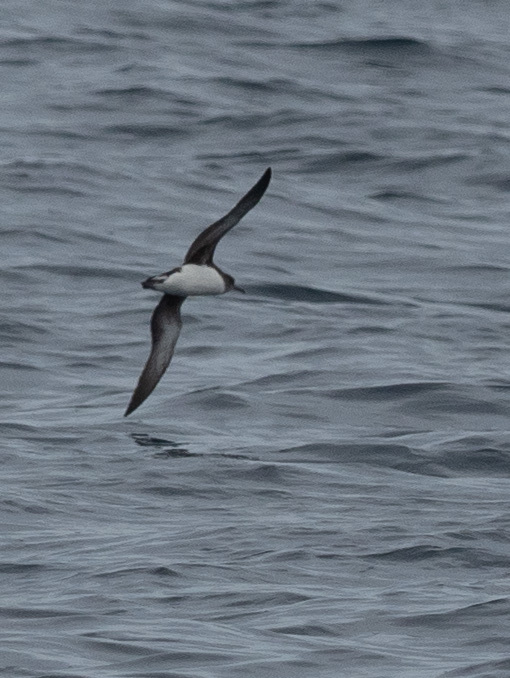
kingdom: Animalia
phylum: Chordata
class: Aves
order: Procellariiformes
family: Procellariidae
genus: Puffinus
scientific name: Puffinus huttoni
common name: Hutton's shearwater
